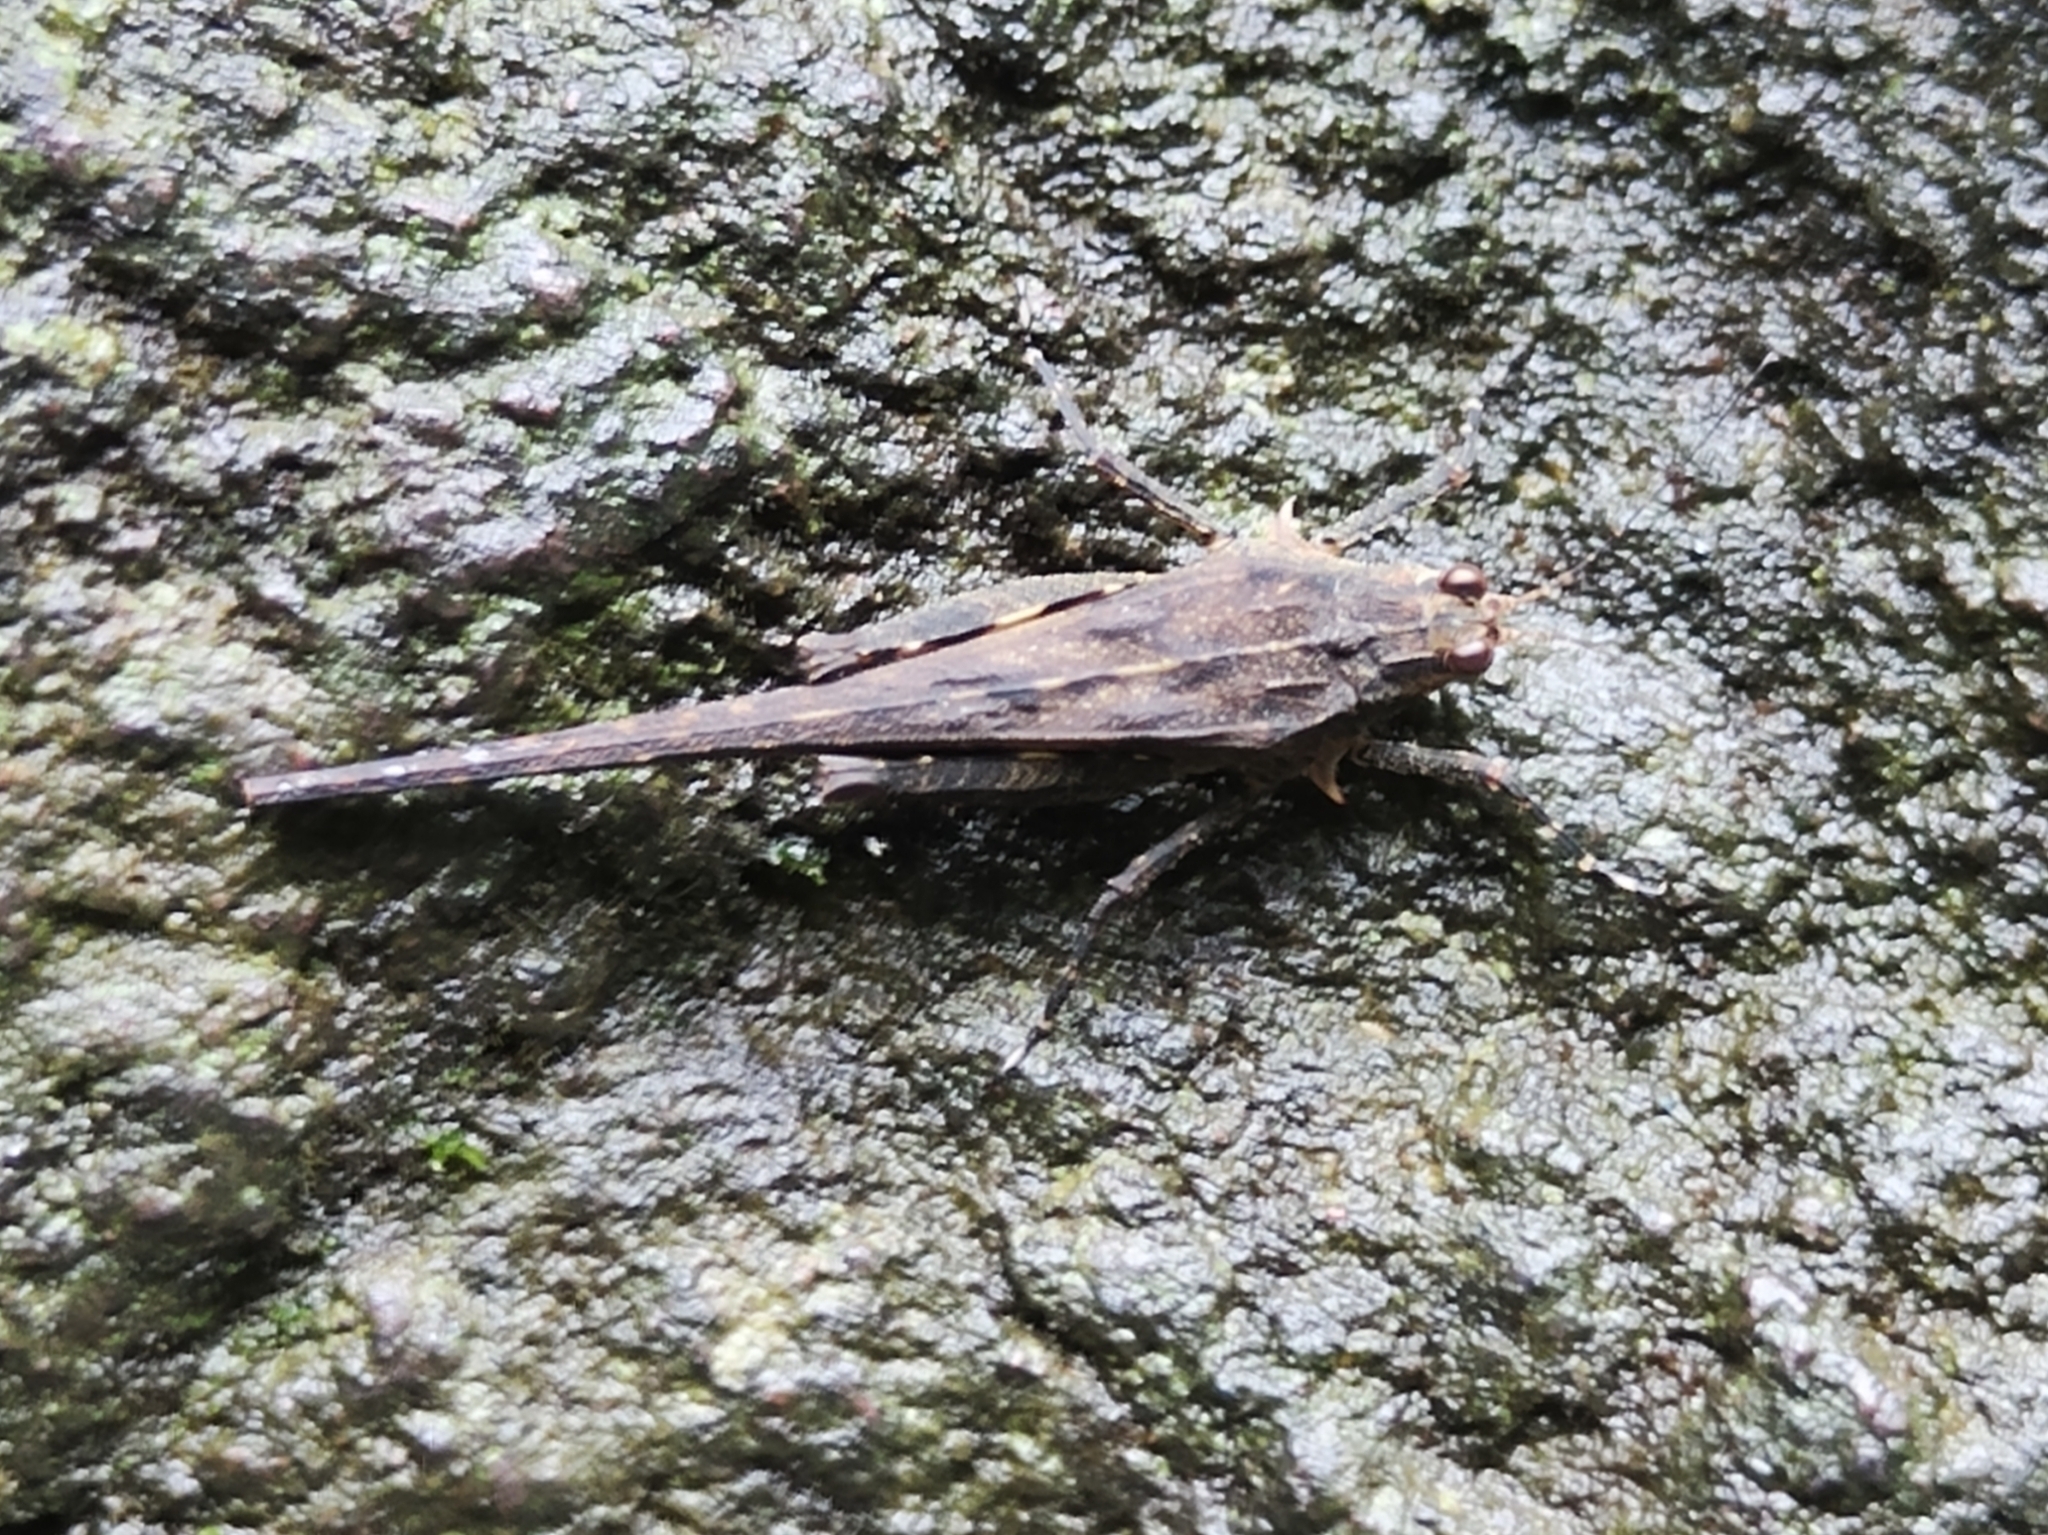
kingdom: Animalia
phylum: Arthropoda
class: Insecta
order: Orthoptera
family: Tetrigidae
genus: Scelimena
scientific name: Scelimena producta
